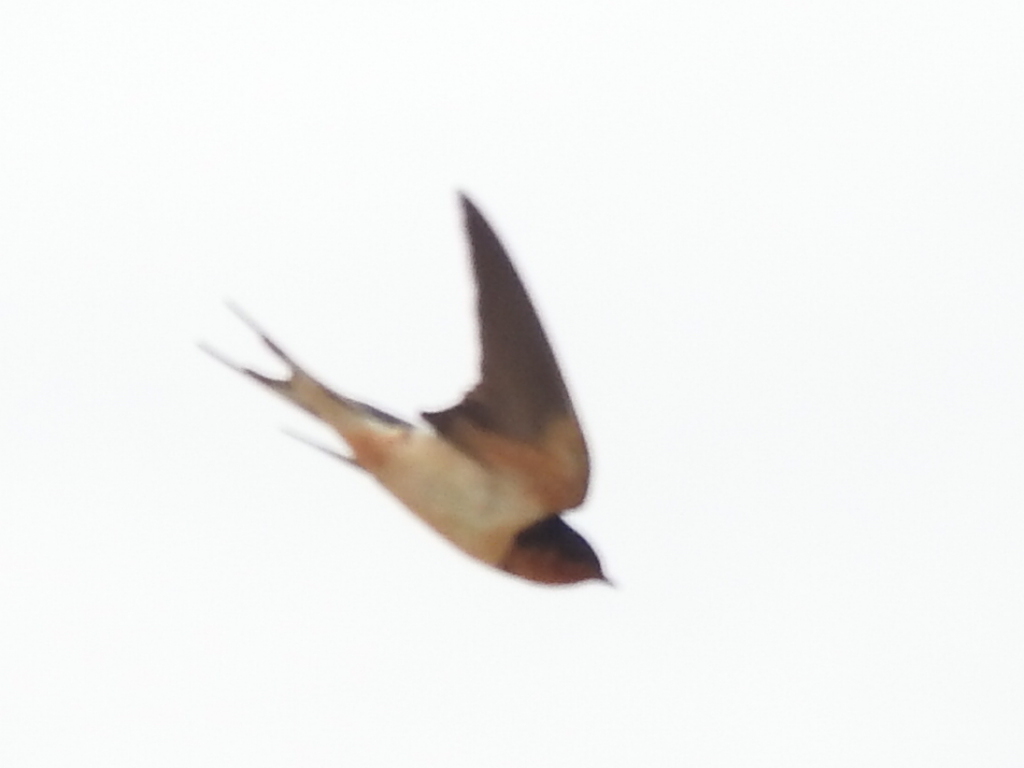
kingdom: Animalia
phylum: Chordata
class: Aves
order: Passeriformes
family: Hirundinidae
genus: Hirundo
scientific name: Hirundo rustica
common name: Barn swallow
